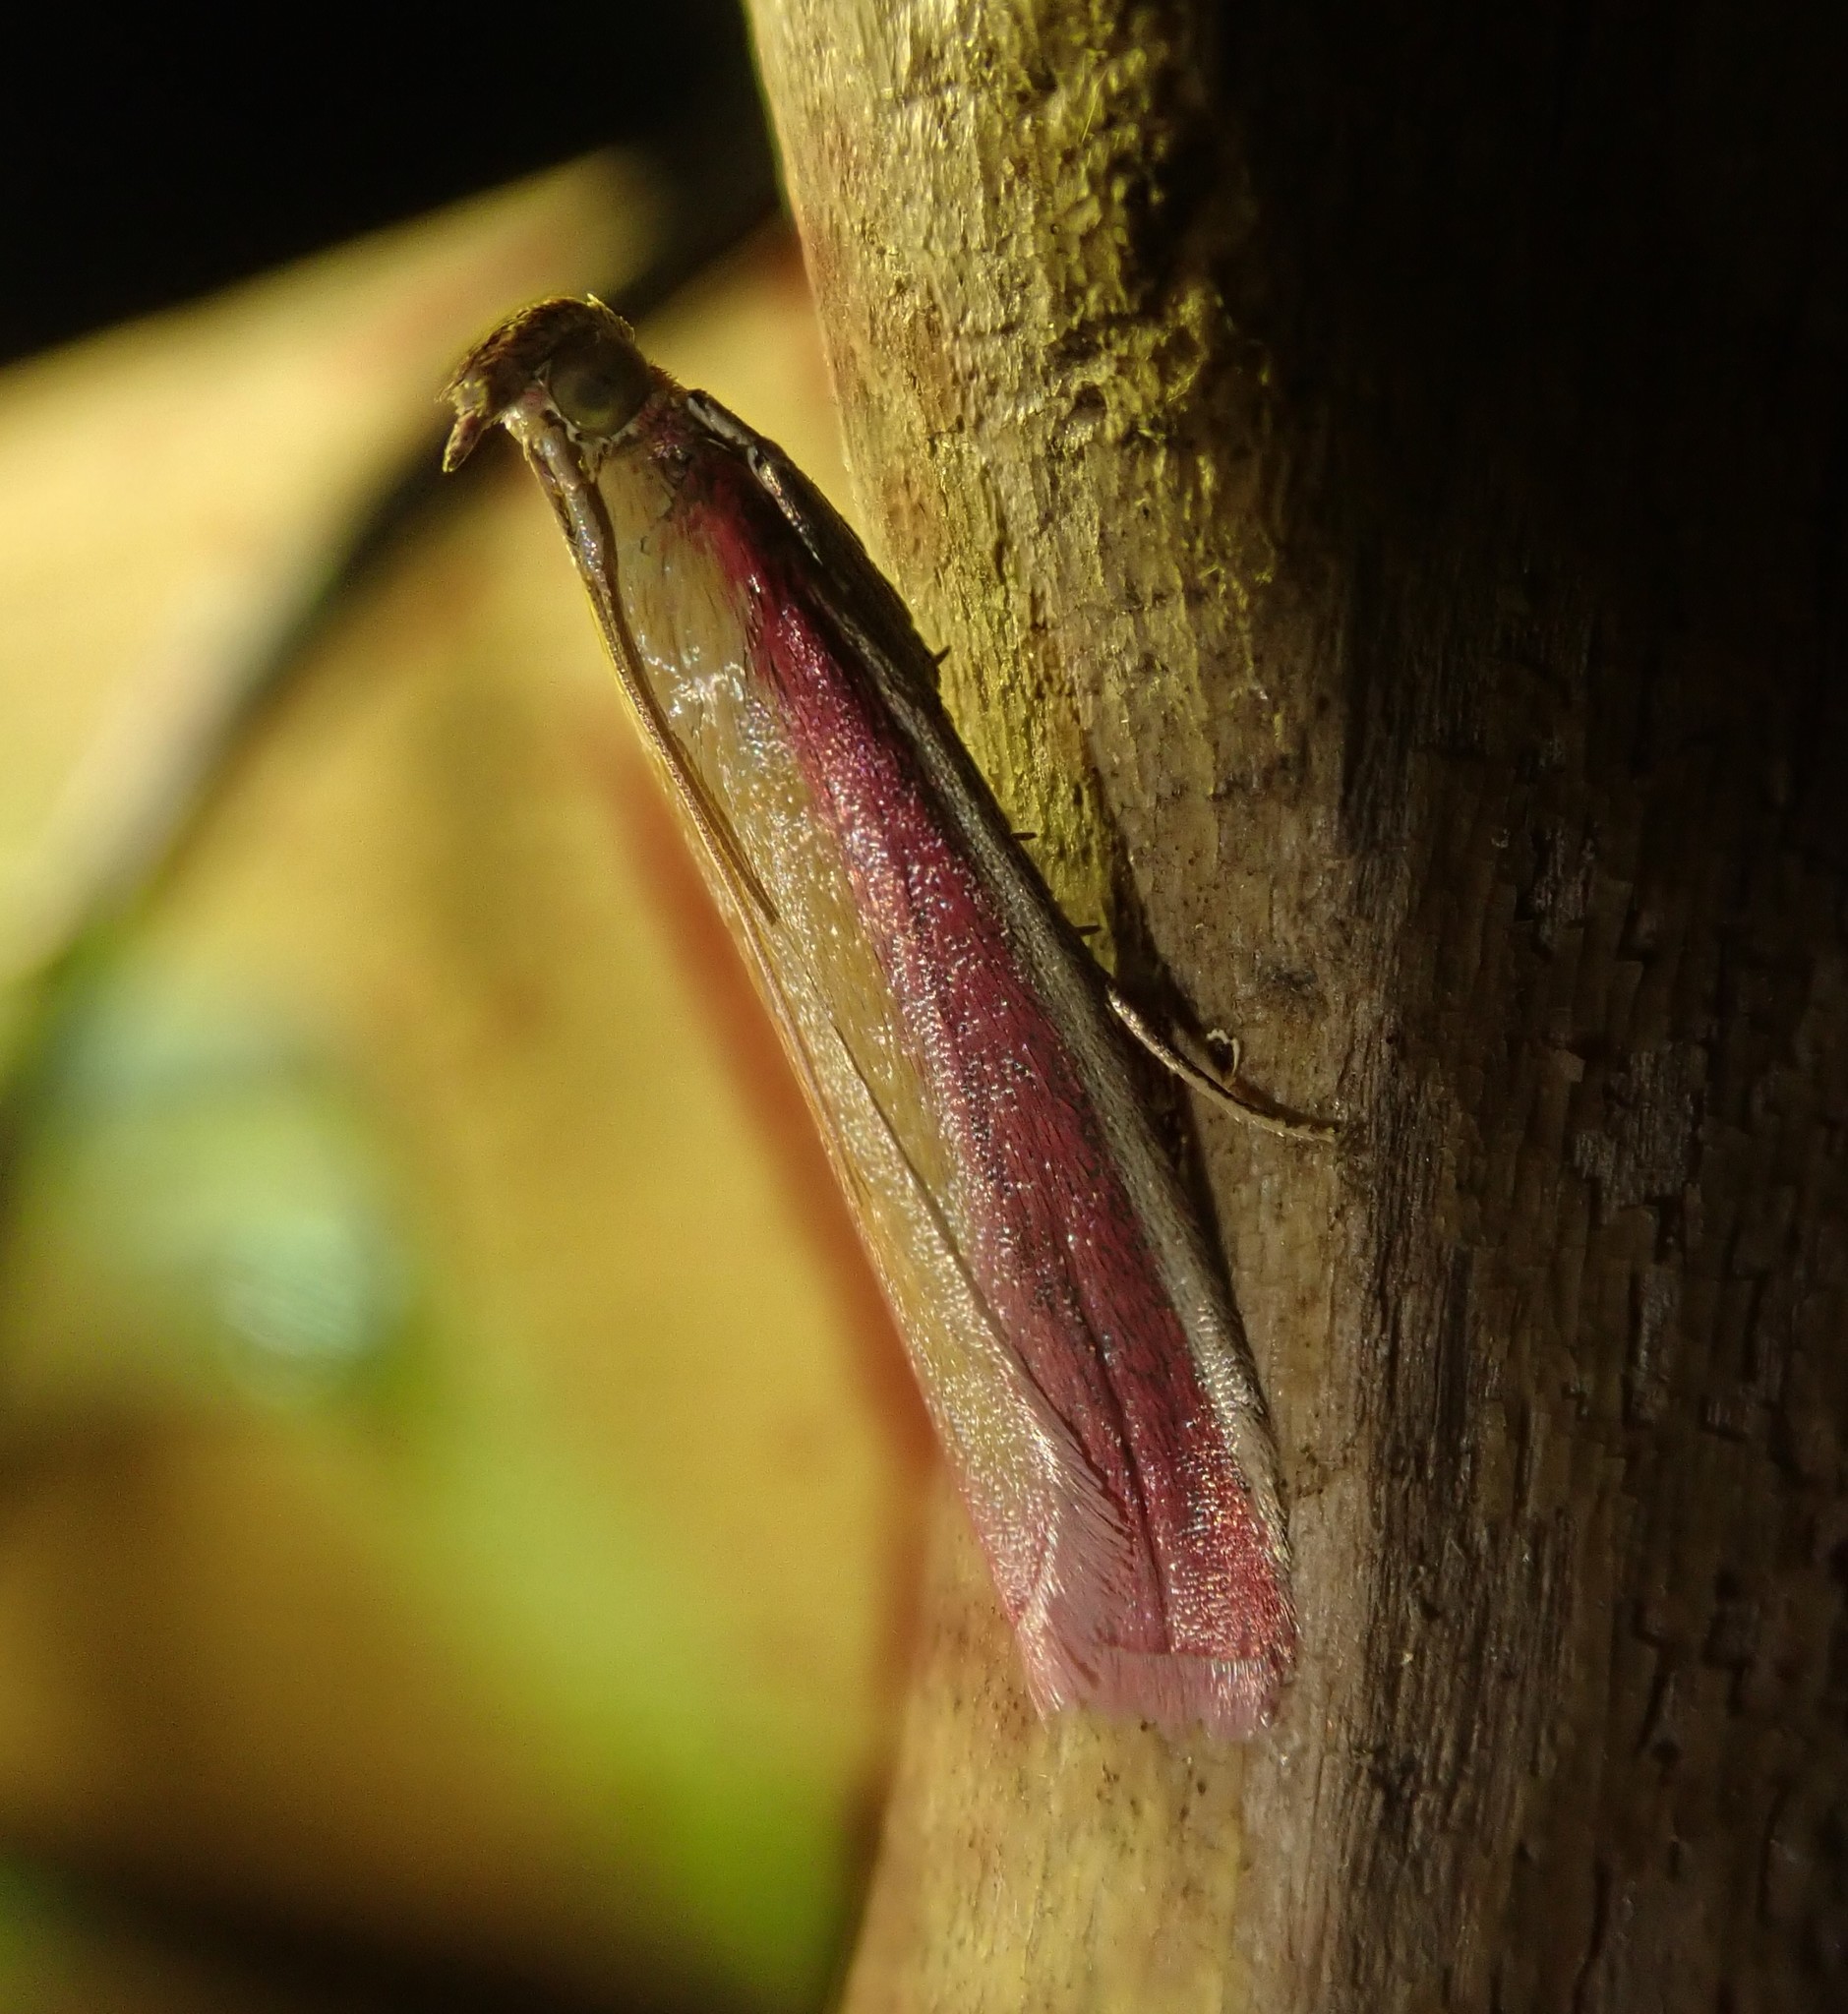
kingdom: Animalia
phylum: Arthropoda
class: Insecta
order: Lepidoptera
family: Pyralidae
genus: Oncocera
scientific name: Oncocera semirubella
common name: Rosy-striped knot-horn
